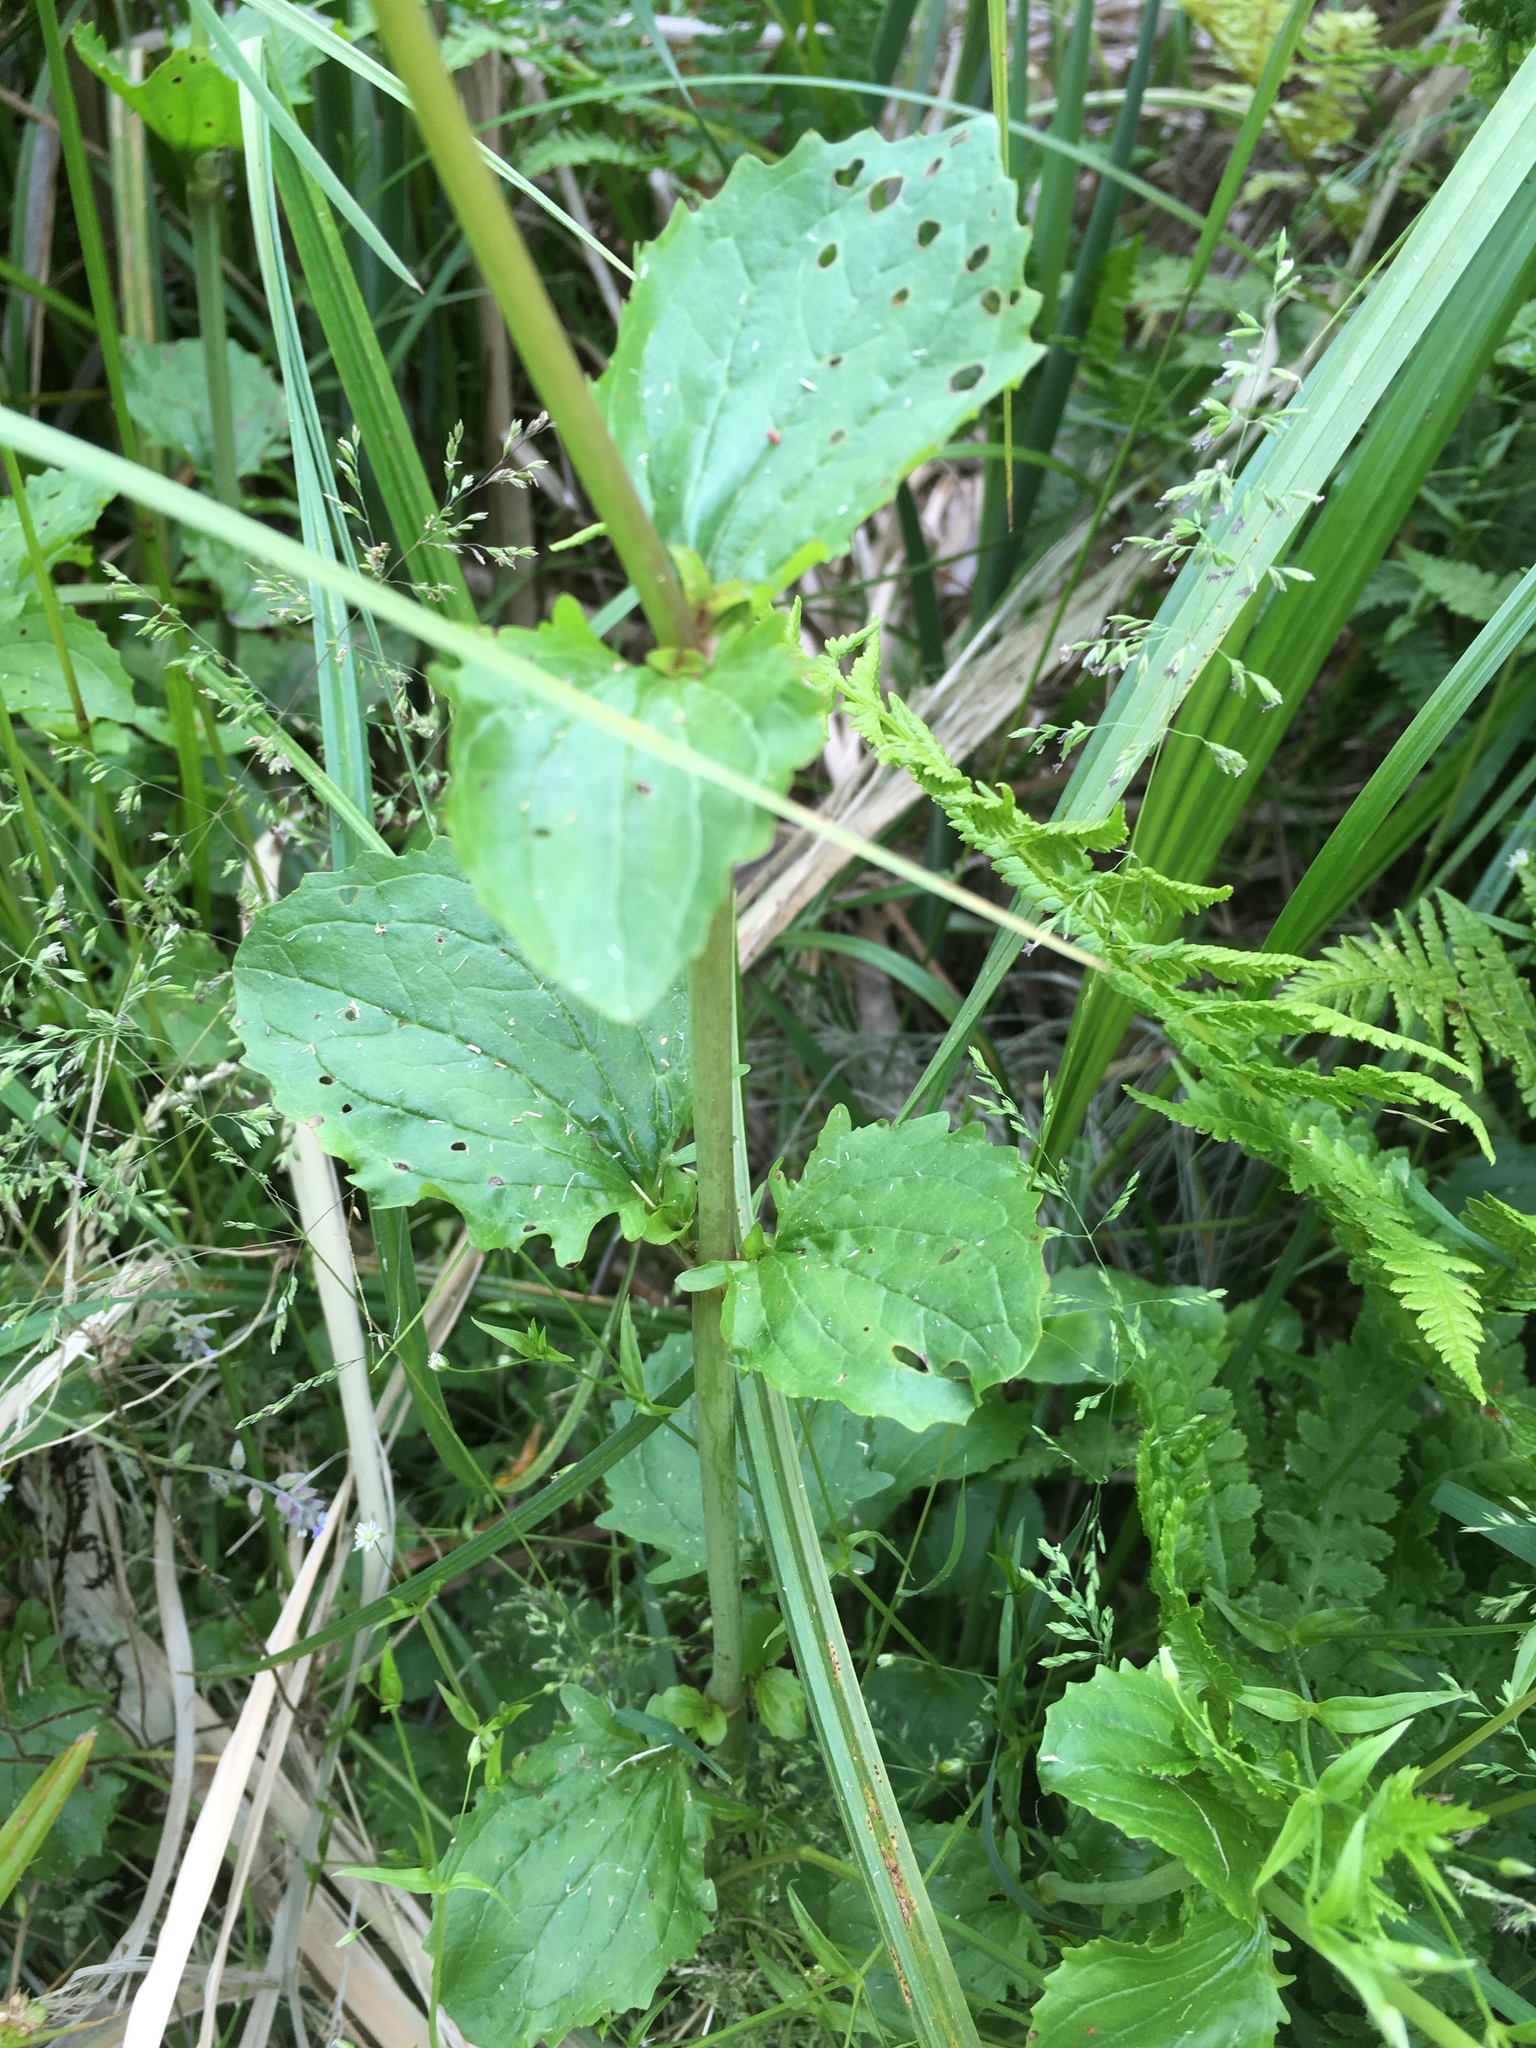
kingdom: Plantae
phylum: Tracheophyta
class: Magnoliopsida
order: Lamiales
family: Phrymaceae
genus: Erythranthe
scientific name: Erythranthe guttata
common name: Monkeyflower
